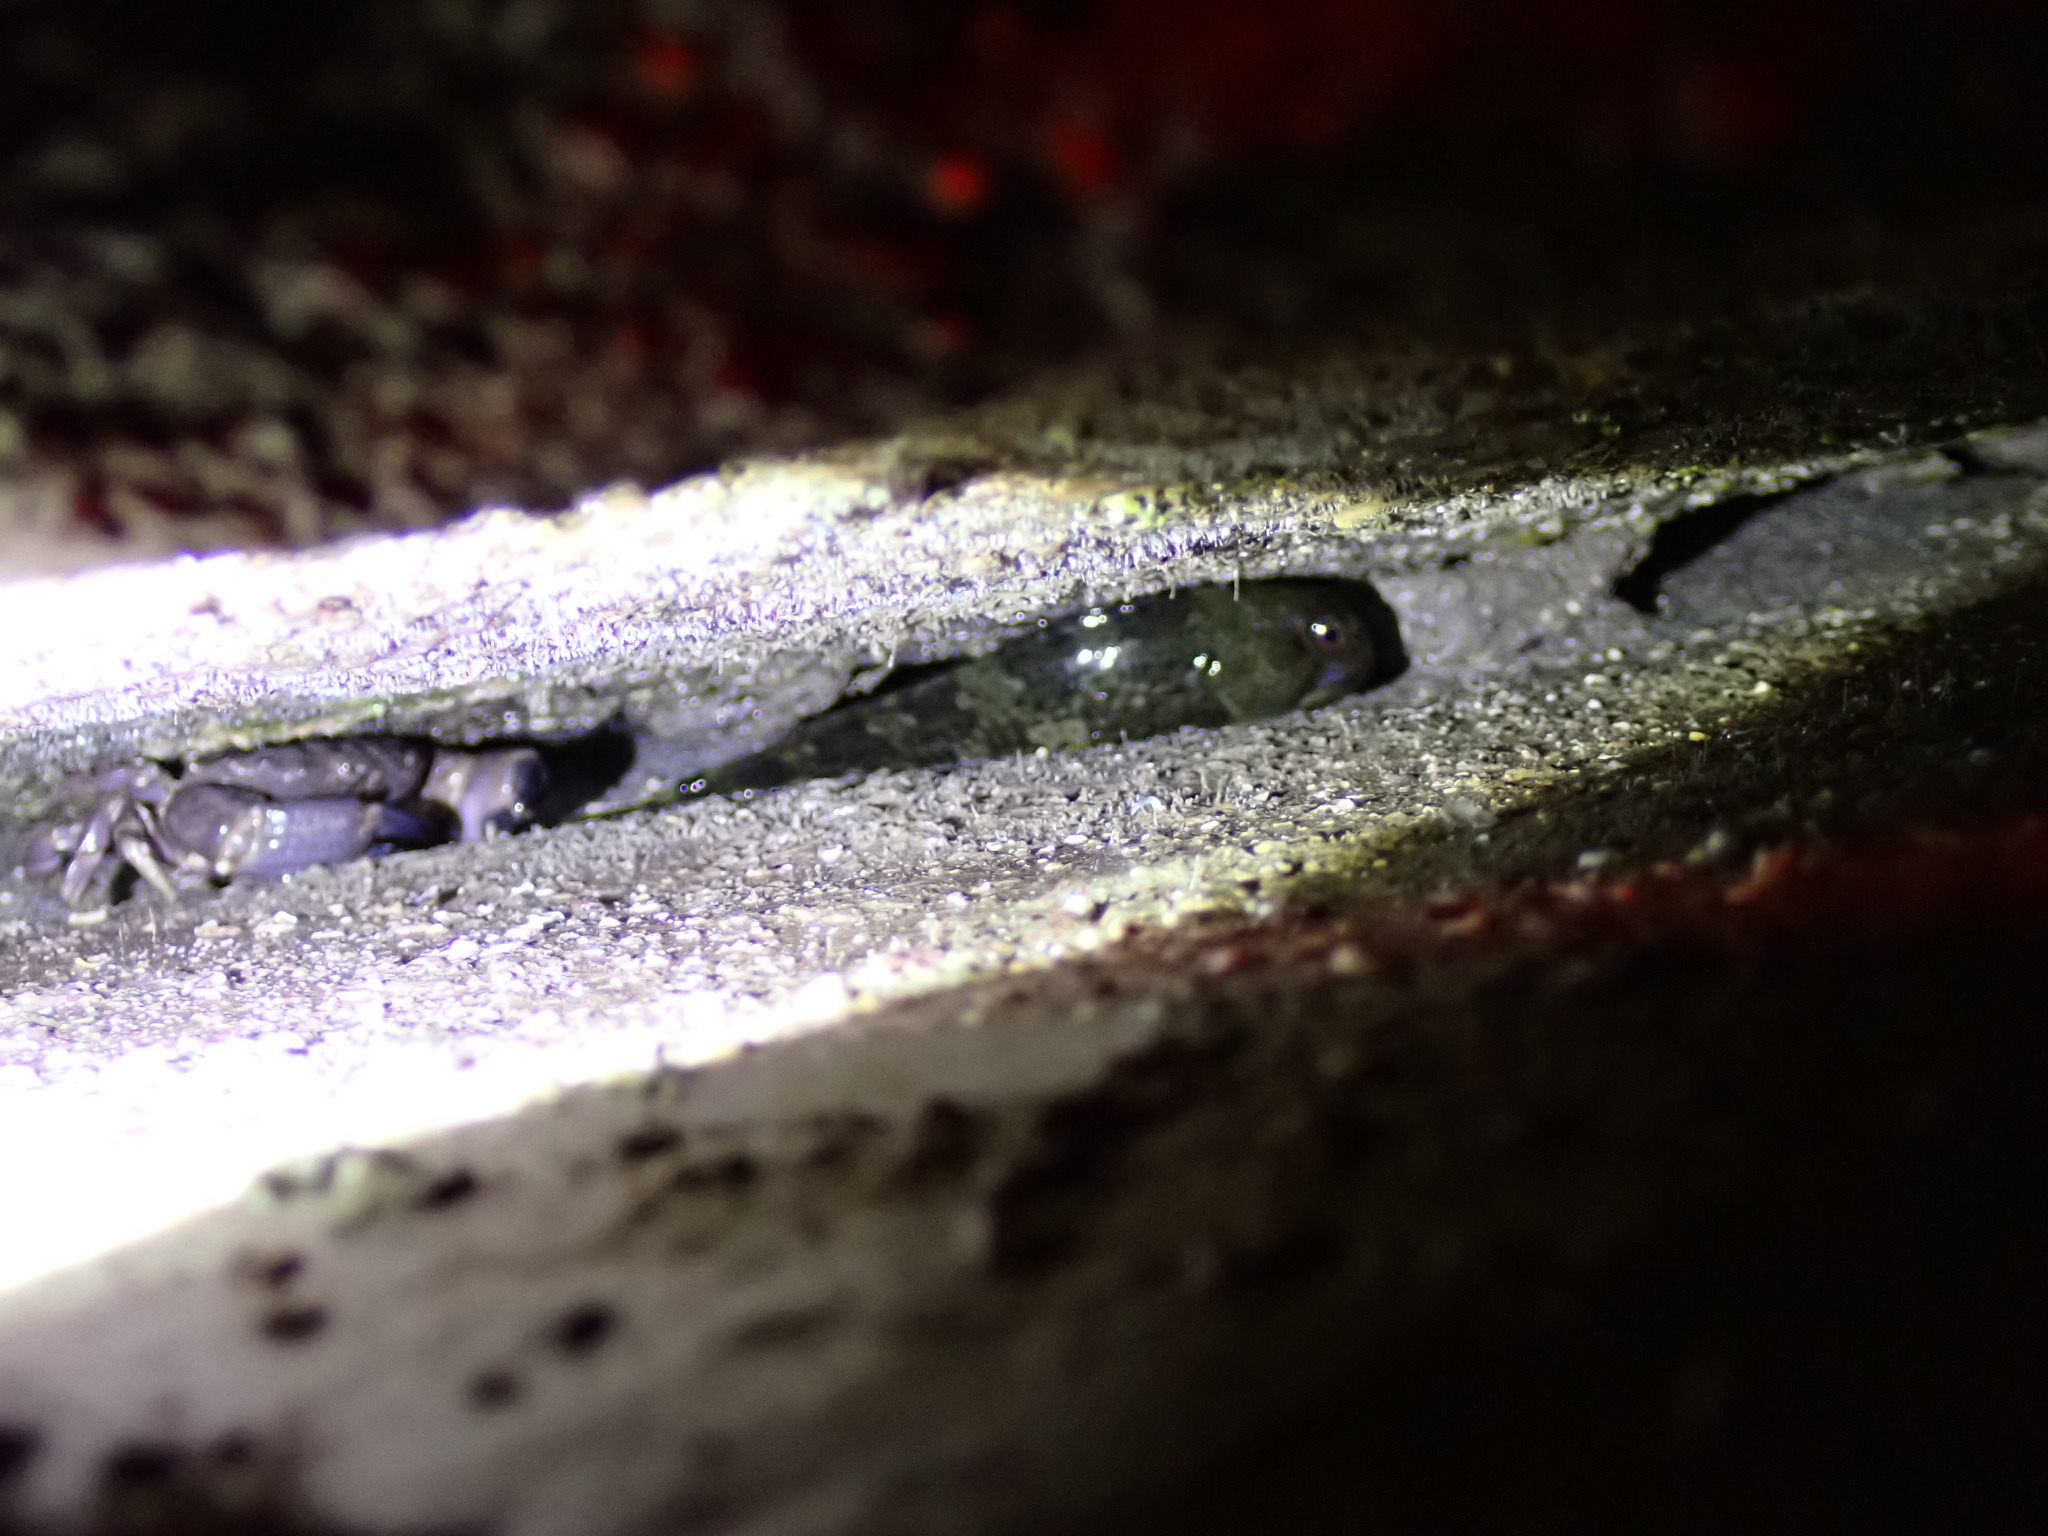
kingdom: Animalia
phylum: Chordata
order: Perciformes
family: Blenniidae
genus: Lipophrys
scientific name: Lipophrys pholis
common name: Shanny
